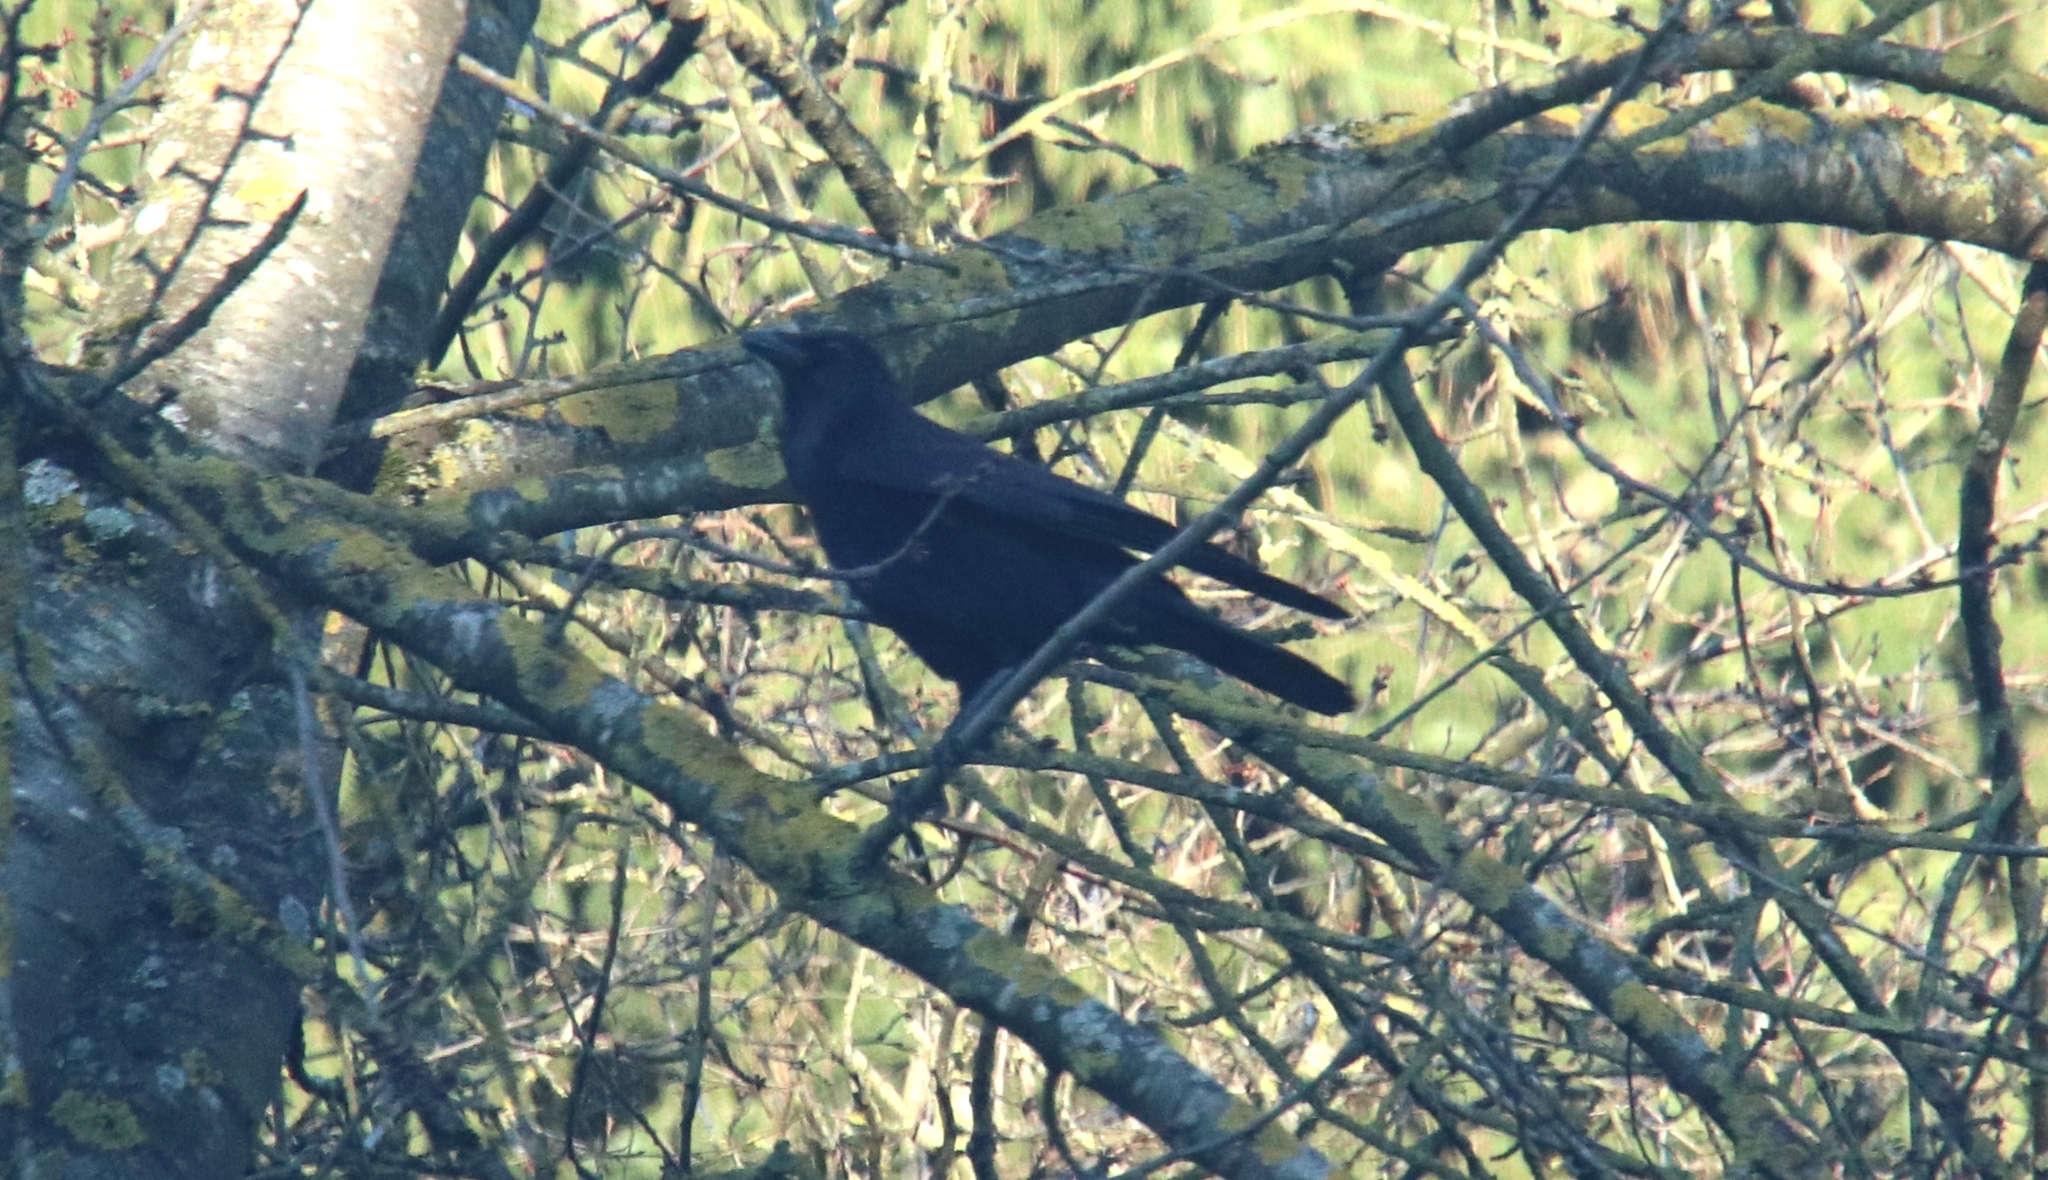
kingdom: Animalia
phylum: Chordata
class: Aves
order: Passeriformes
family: Corvidae
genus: Corvus
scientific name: Corvus corone
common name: Carrion crow
